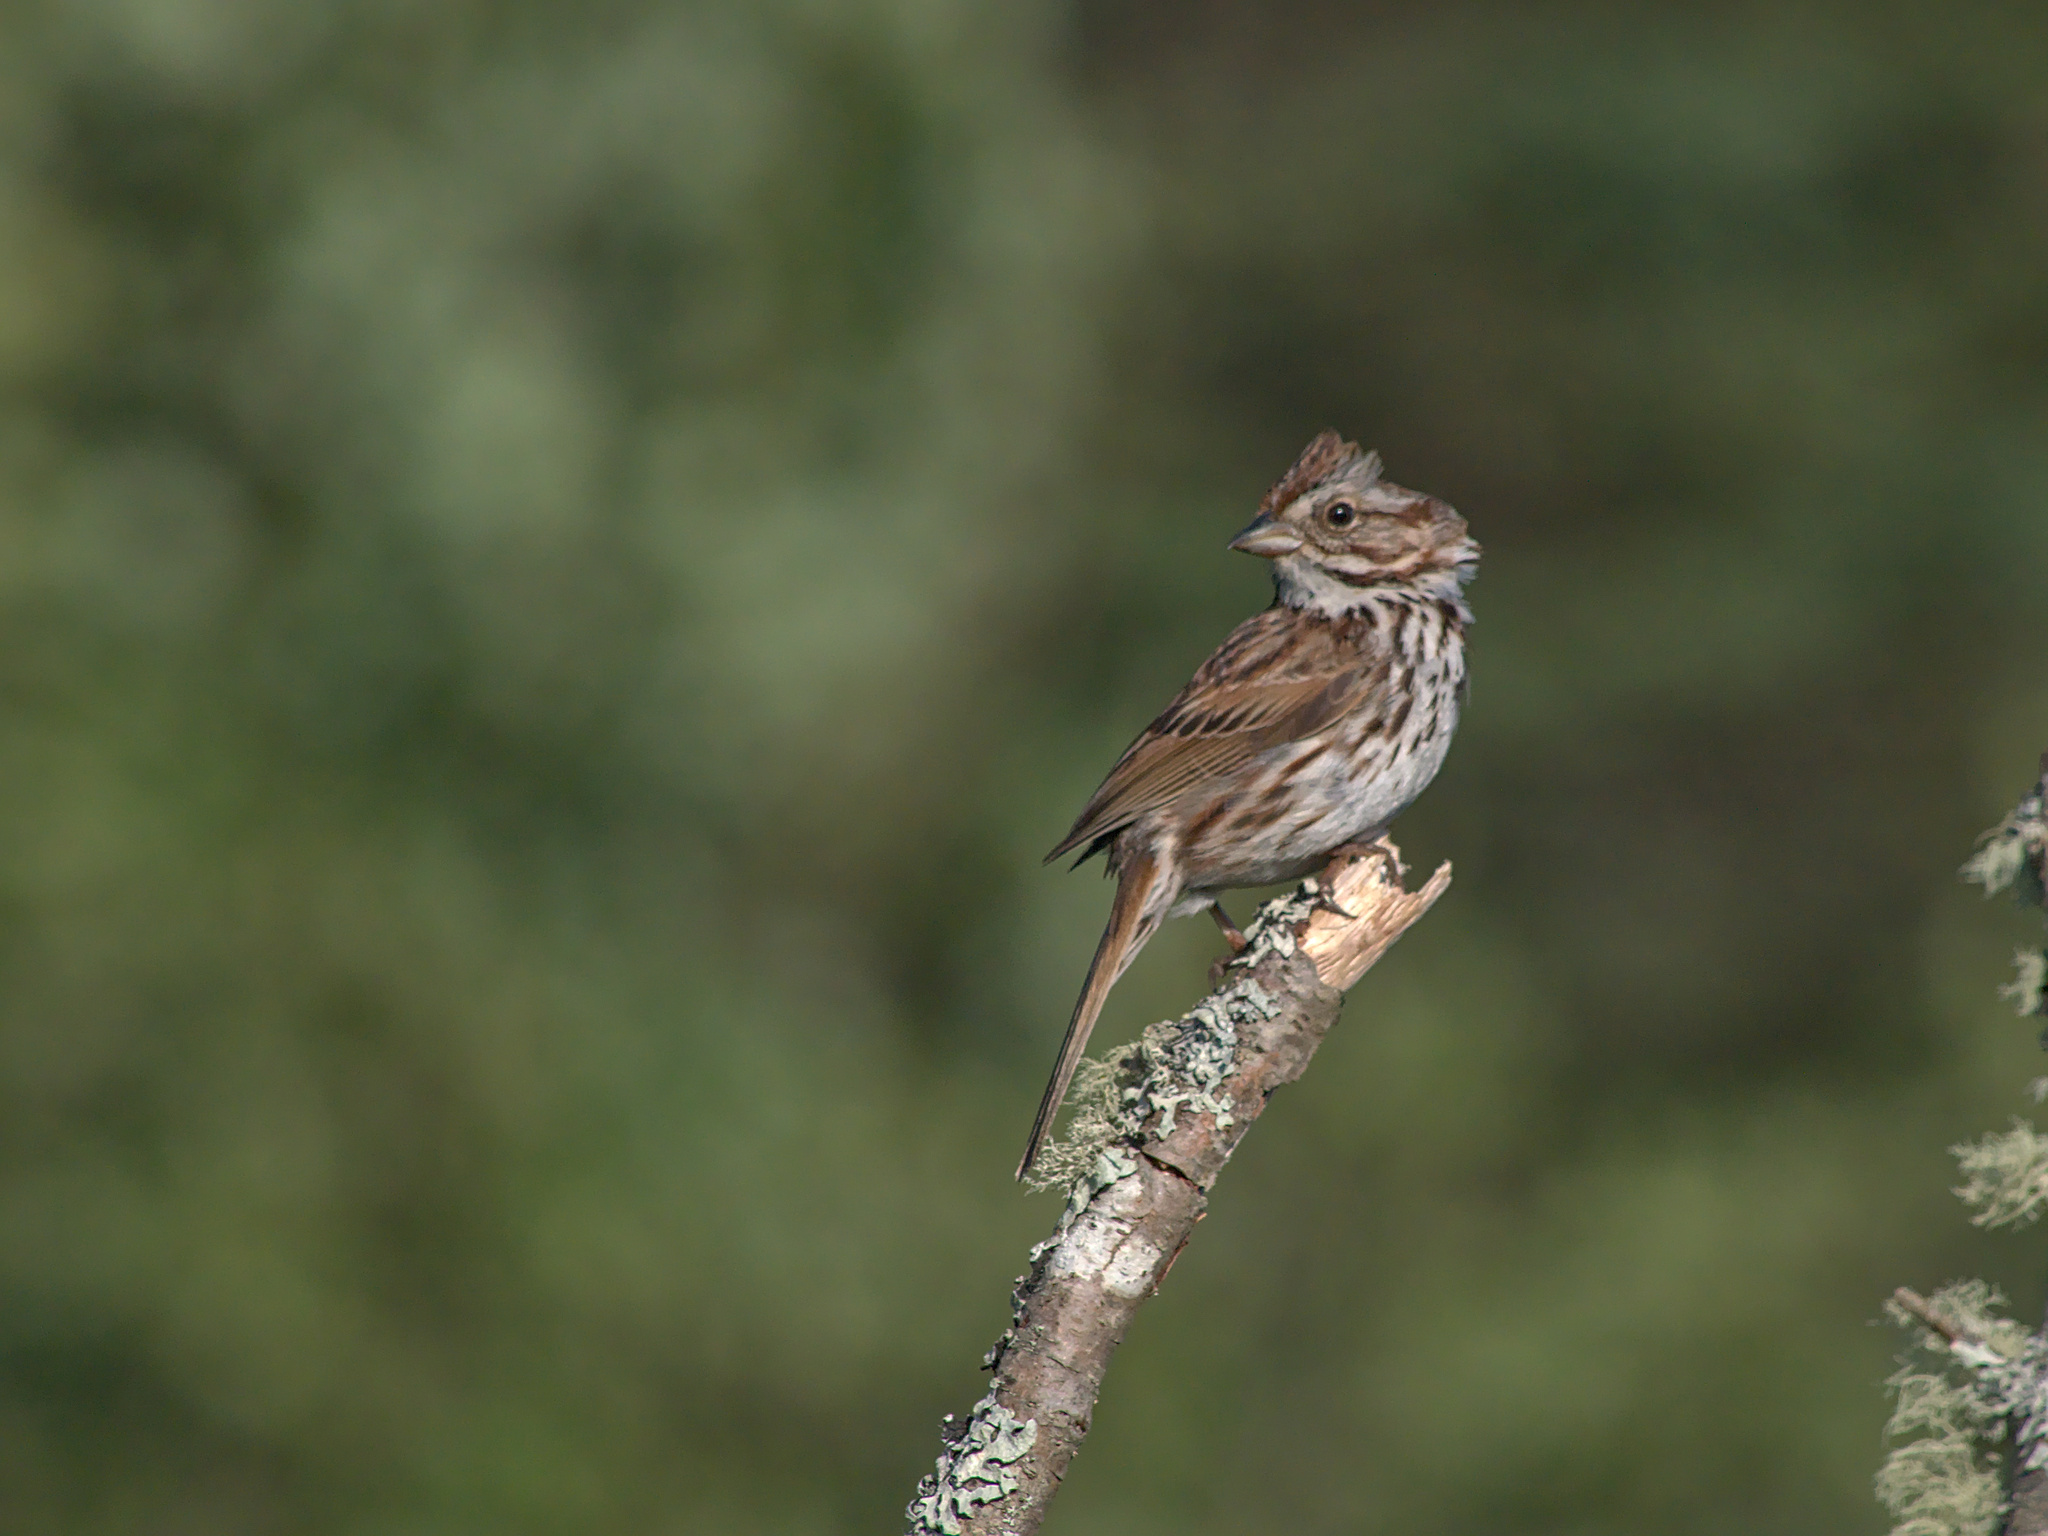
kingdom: Animalia
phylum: Chordata
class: Aves
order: Passeriformes
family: Passerellidae
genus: Melospiza
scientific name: Melospiza melodia
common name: Song sparrow
